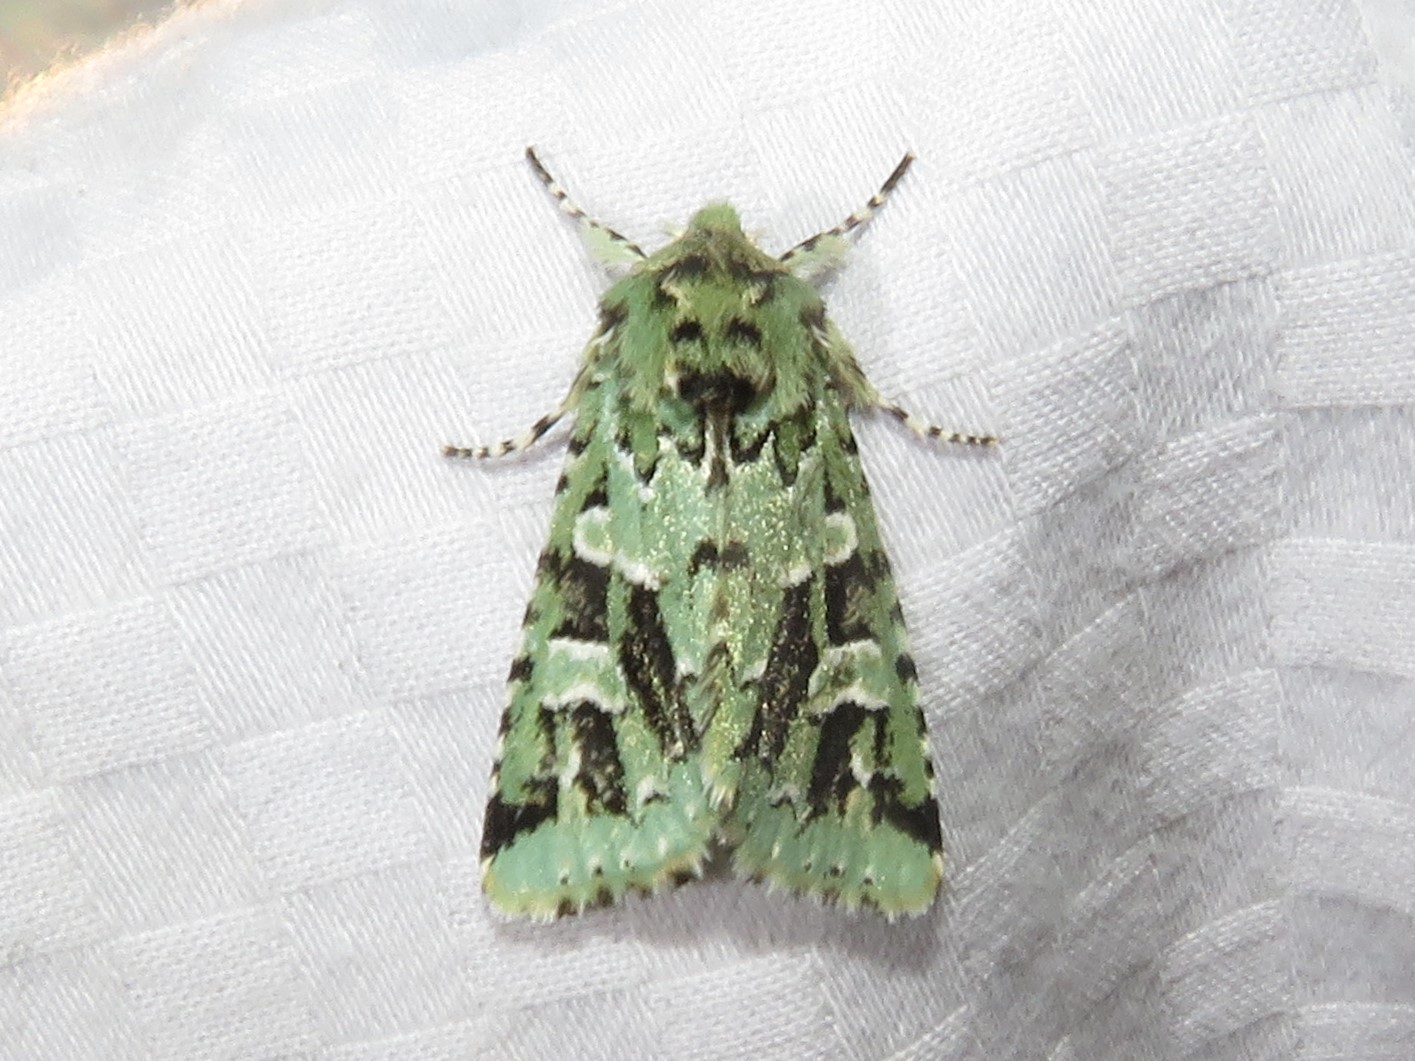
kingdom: Animalia
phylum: Arthropoda
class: Insecta
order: Lepidoptera
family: Noctuidae
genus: Feralia
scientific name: Feralia comstocki
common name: Comstock's sallow
